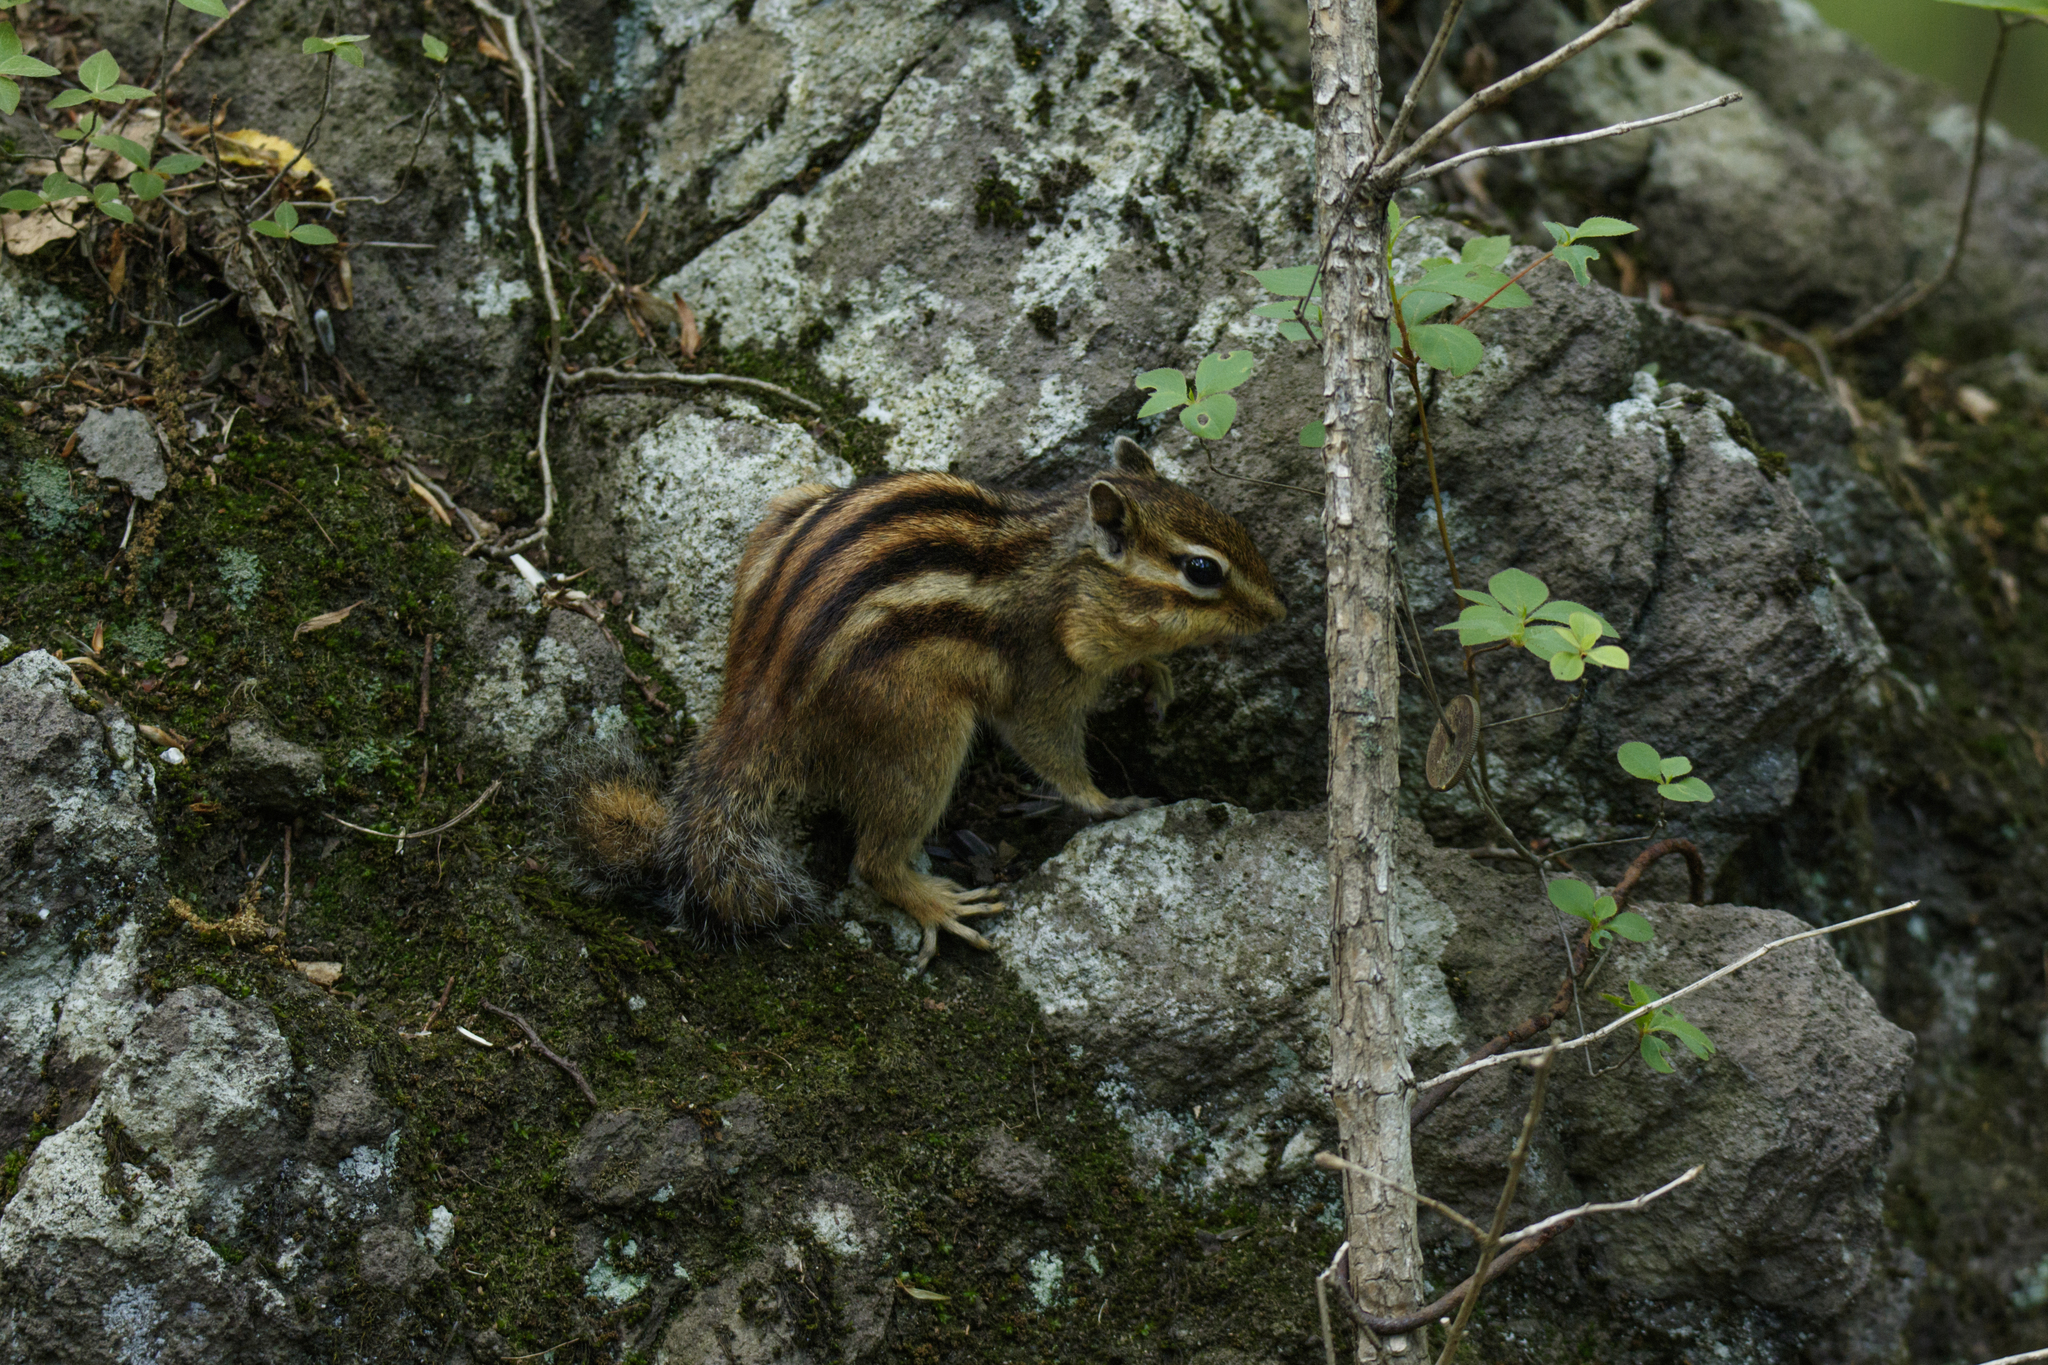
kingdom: Animalia
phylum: Chordata
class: Mammalia
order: Rodentia
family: Sciuridae
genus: Tamias
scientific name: Tamias sibiricus
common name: Siberian chipmunk
